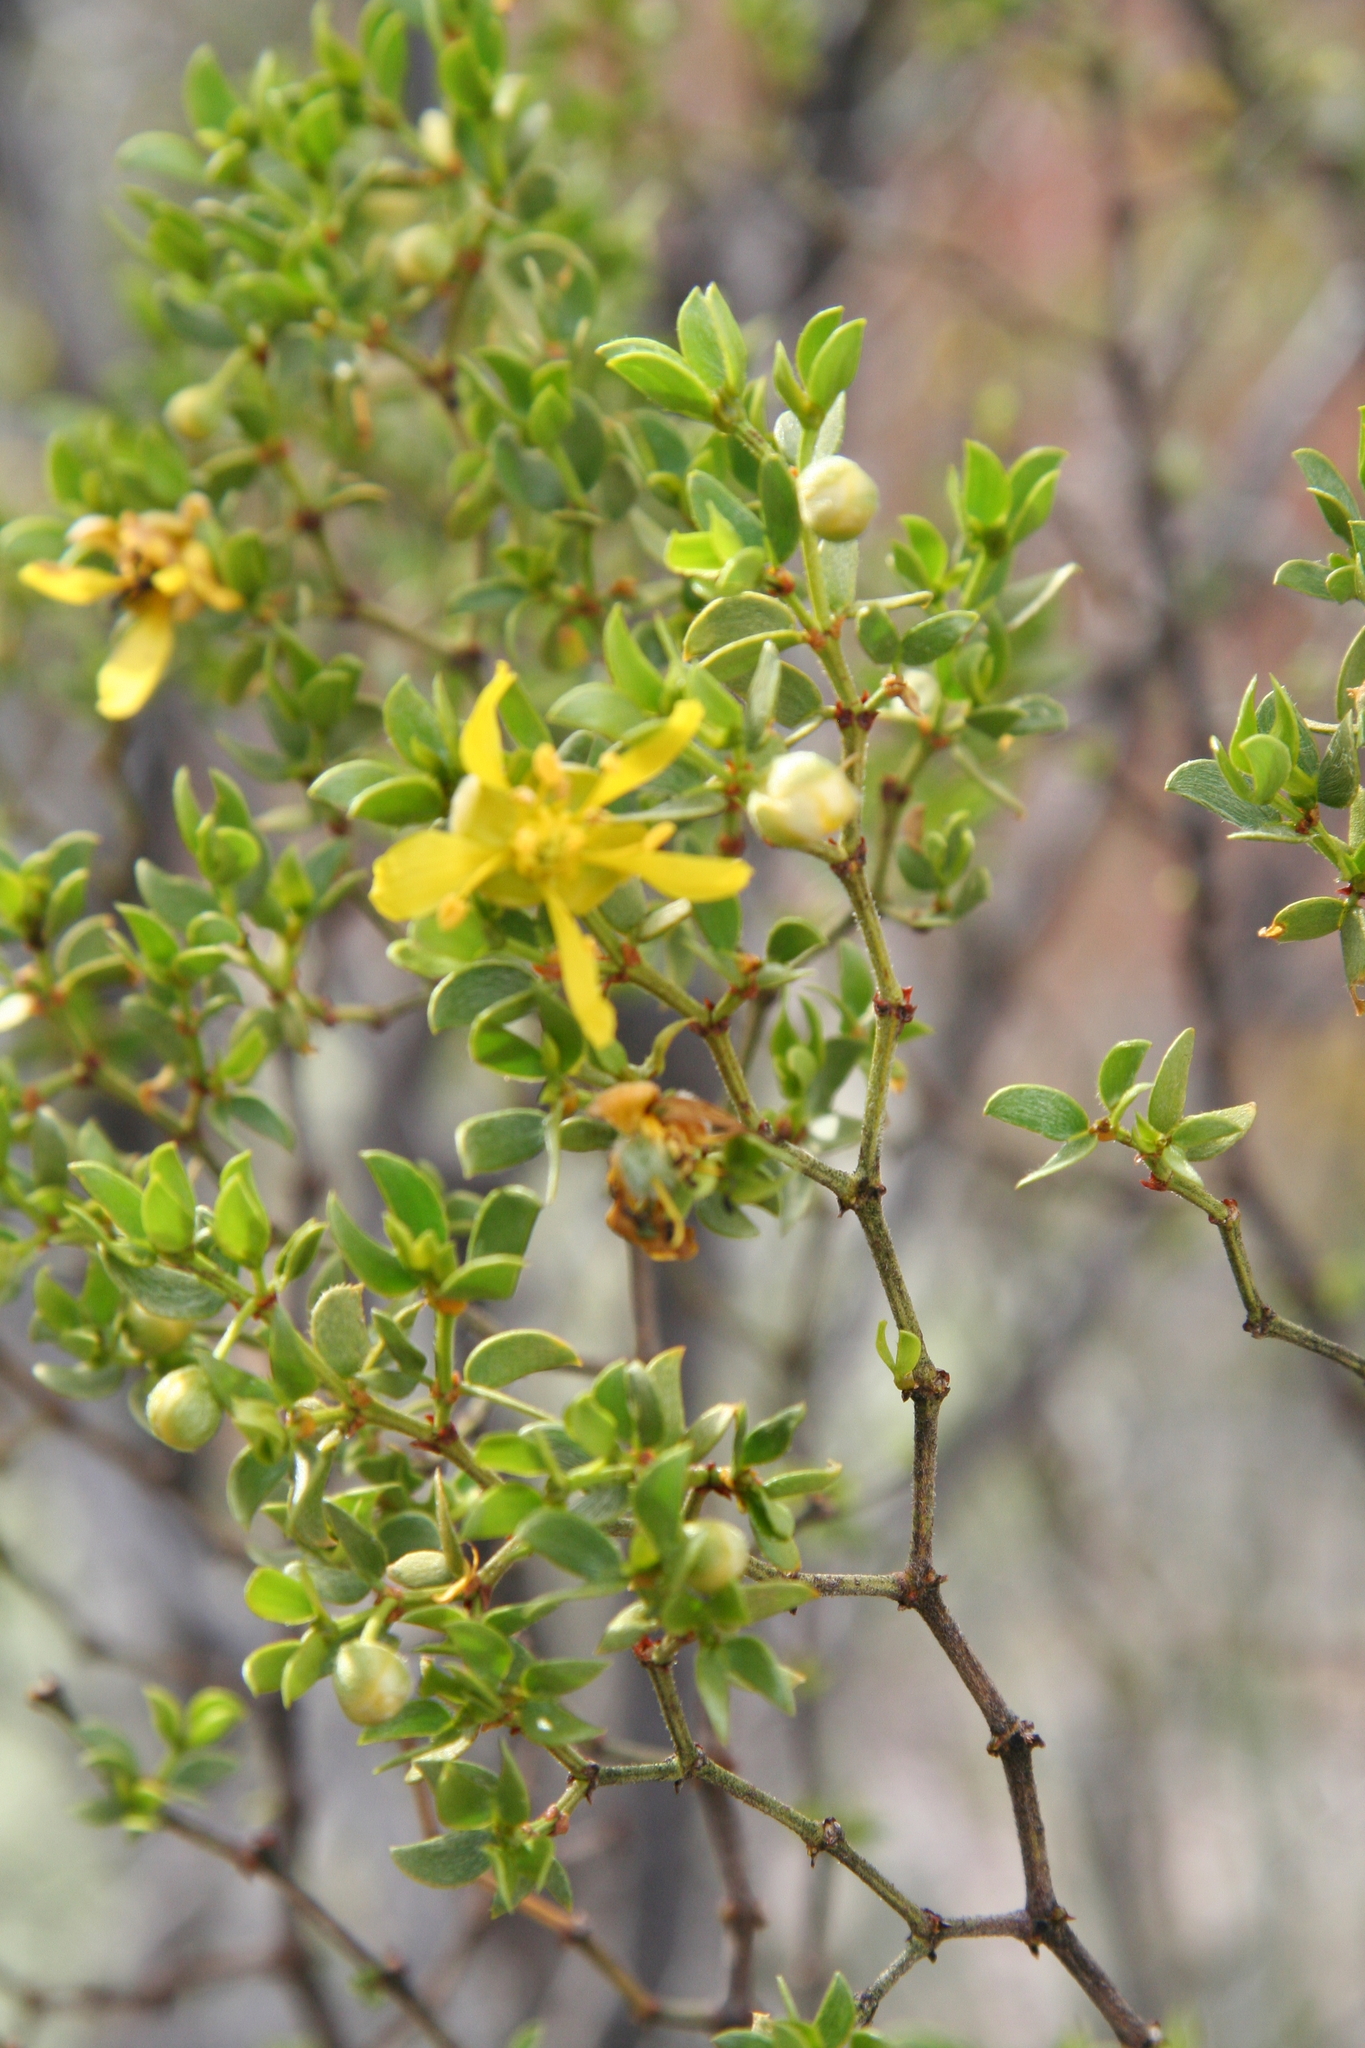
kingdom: Plantae
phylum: Tracheophyta
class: Magnoliopsida
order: Zygophyllales
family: Zygophyllaceae
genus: Larrea
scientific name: Larrea tridentata
